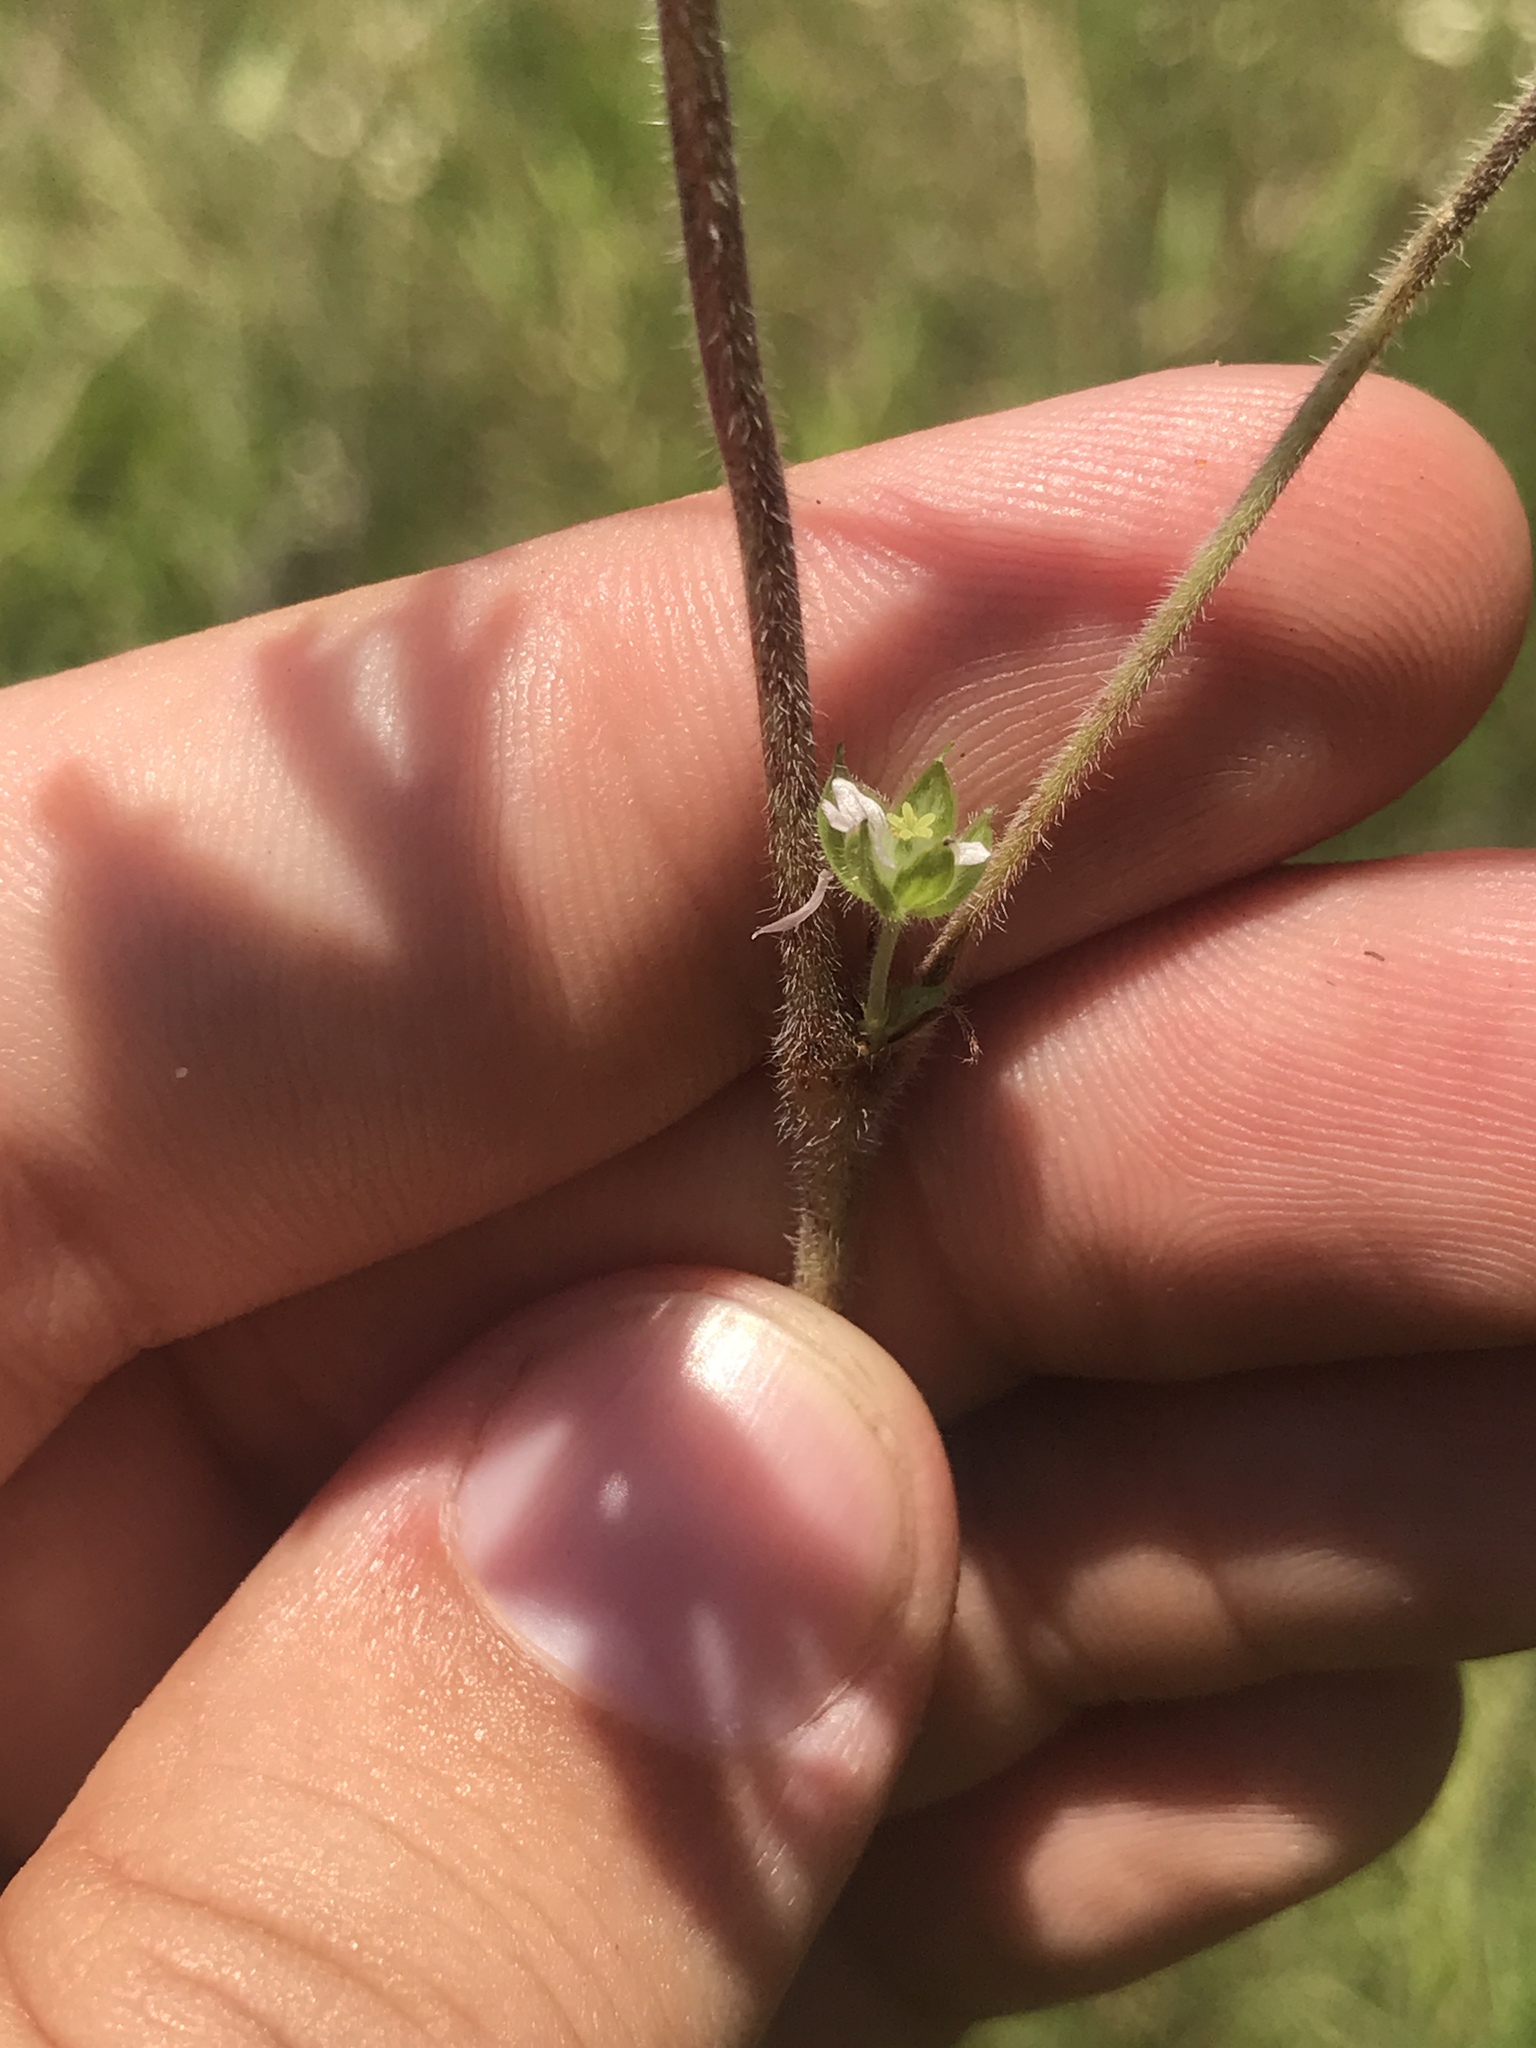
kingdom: Plantae
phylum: Tracheophyta
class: Magnoliopsida
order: Geraniales
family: Geraniaceae
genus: Geranium
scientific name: Geranium carolinianum
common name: Carolina crane's-bill
